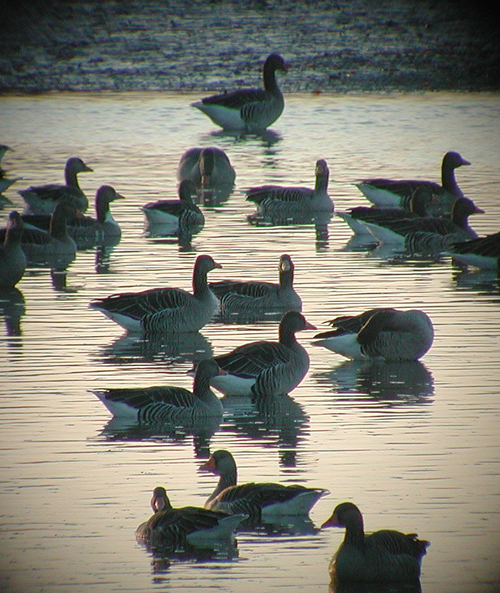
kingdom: Animalia
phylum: Chordata
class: Aves
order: Anseriformes
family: Anatidae
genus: Anser
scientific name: Anser anser
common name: Greylag goose
